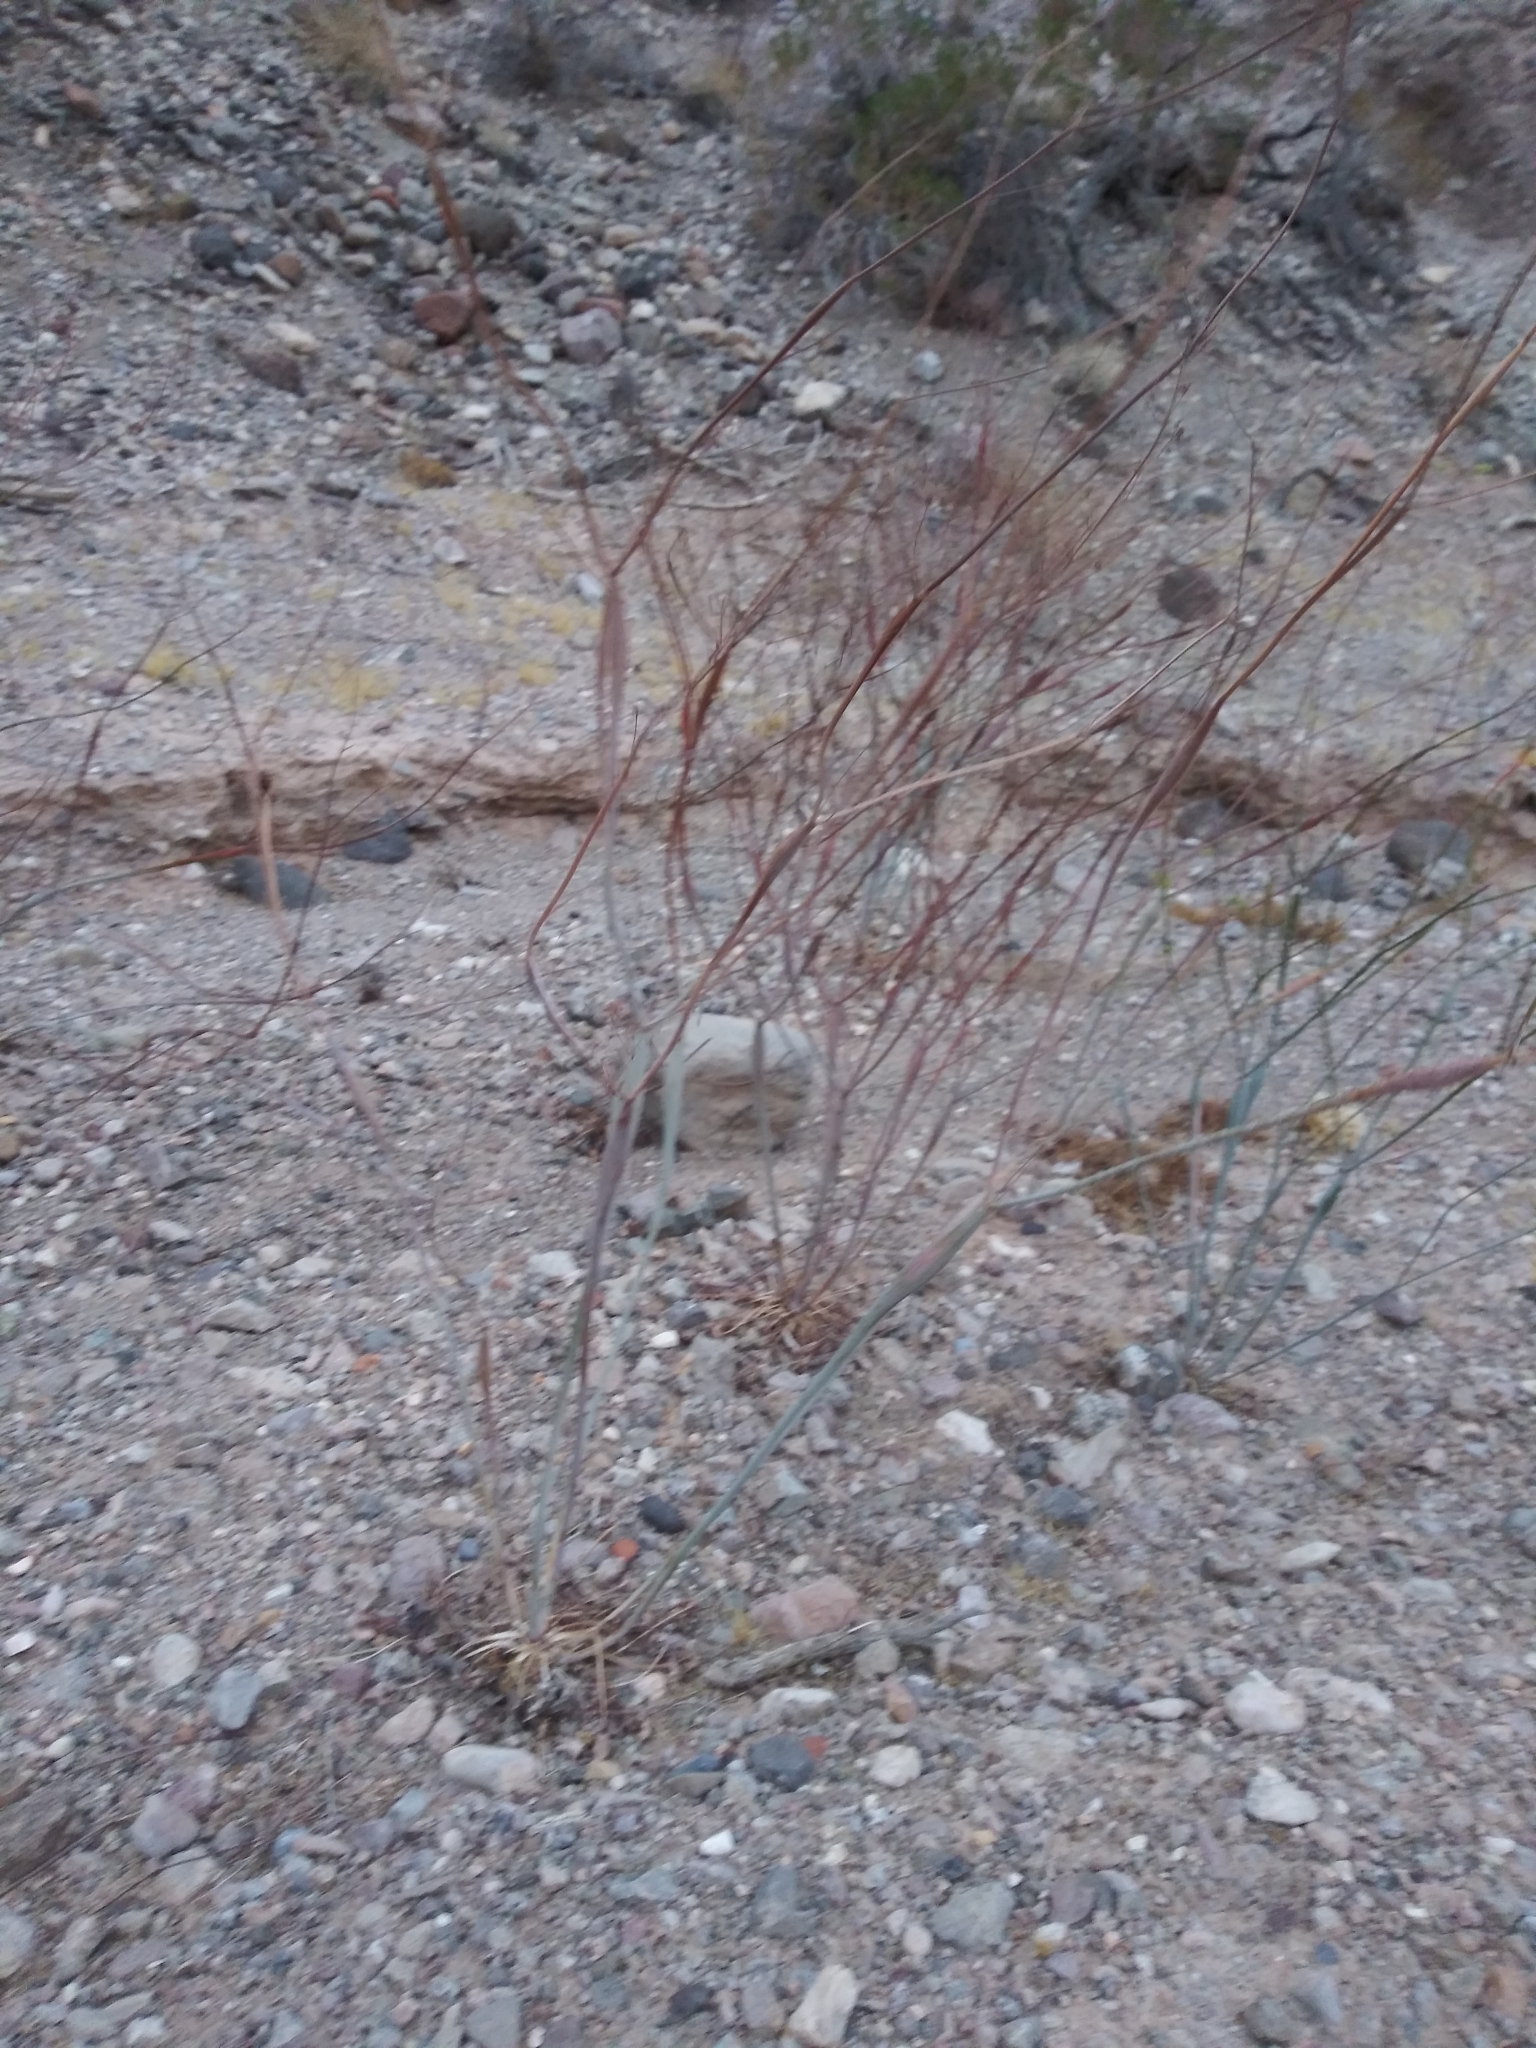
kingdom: Plantae
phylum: Tracheophyta
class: Magnoliopsida
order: Caryophyllales
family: Polygonaceae
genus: Eriogonum
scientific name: Eriogonum inflatum
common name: Desert trumpet
